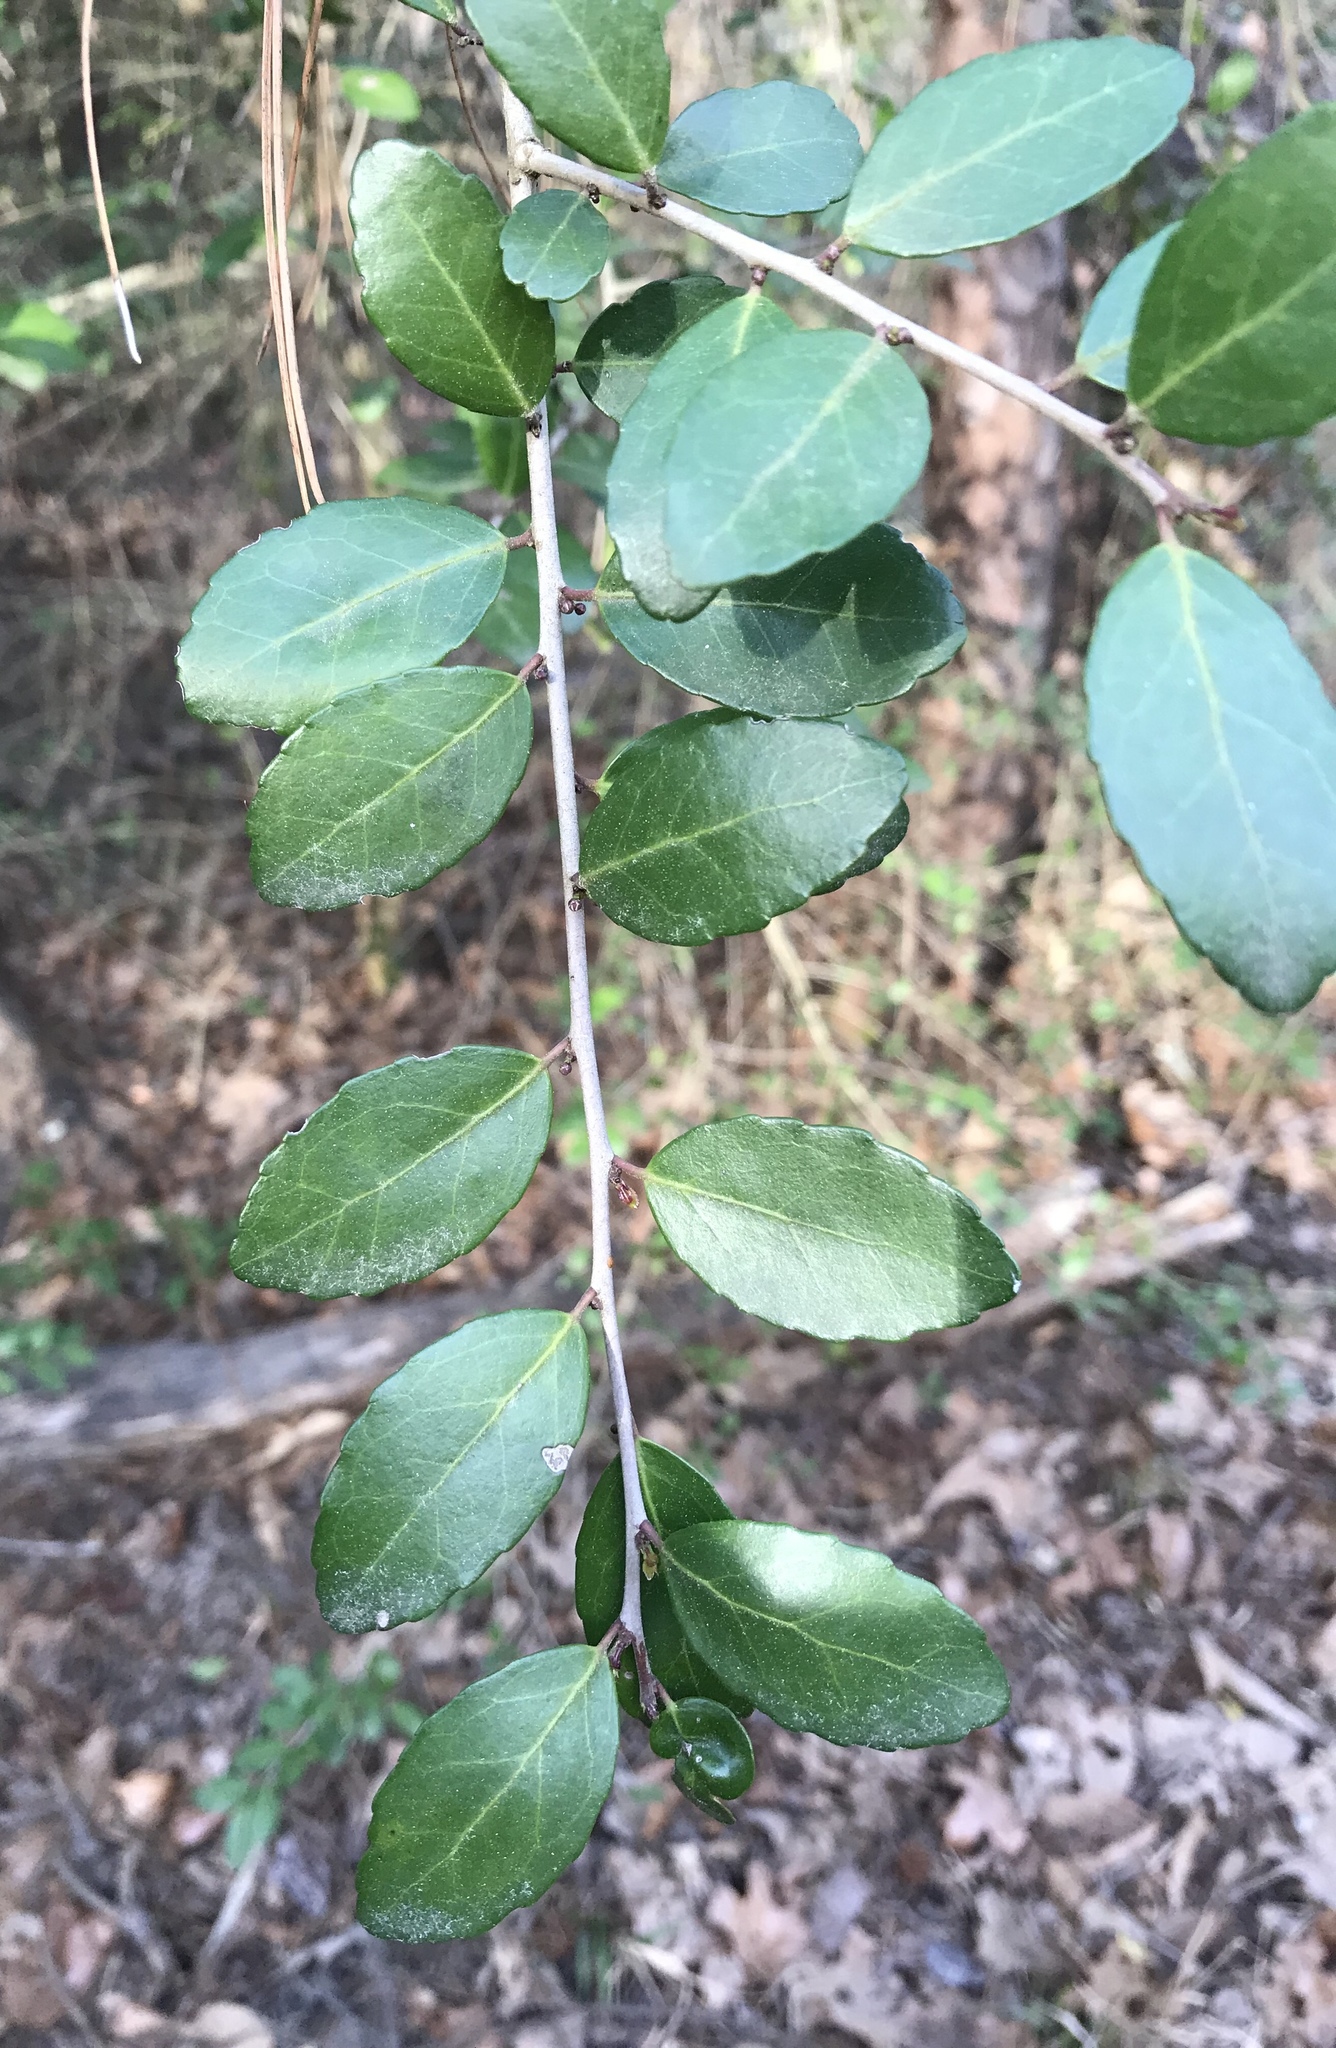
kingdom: Plantae
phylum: Tracheophyta
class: Magnoliopsida
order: Aquifoliales
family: Aquifoliaceae
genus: Ilex
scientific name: Ilex vomitoria
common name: Yaupon holly
